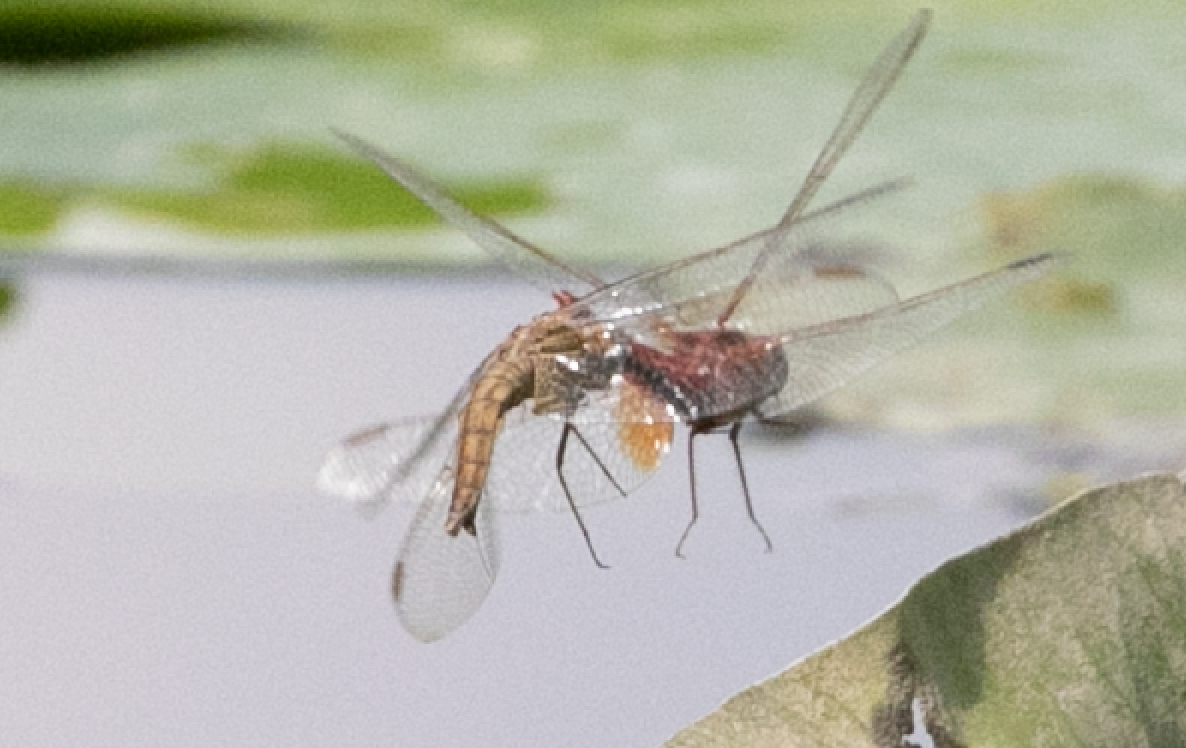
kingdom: Animalia
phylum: Arthropoda
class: Insecta
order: Odonata
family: Libellulidae
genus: Crocothemis
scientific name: Crocothemis erythraea
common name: Scarlet dragonfly
